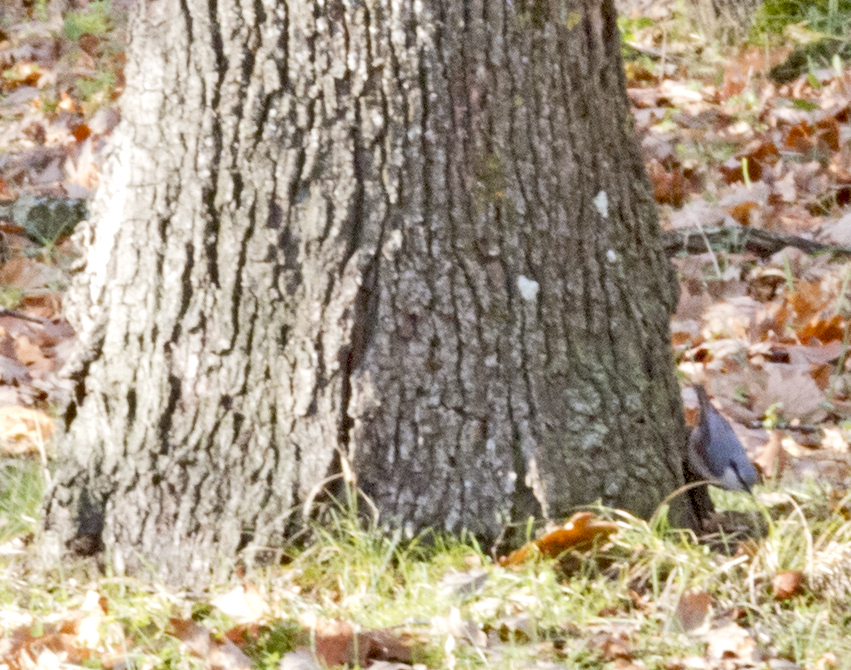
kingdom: Animalia
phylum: Chordata
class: Aves
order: Passeriformes
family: Sittidae
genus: Sitta
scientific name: Sitta europaea
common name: Eurasian nuthatch
